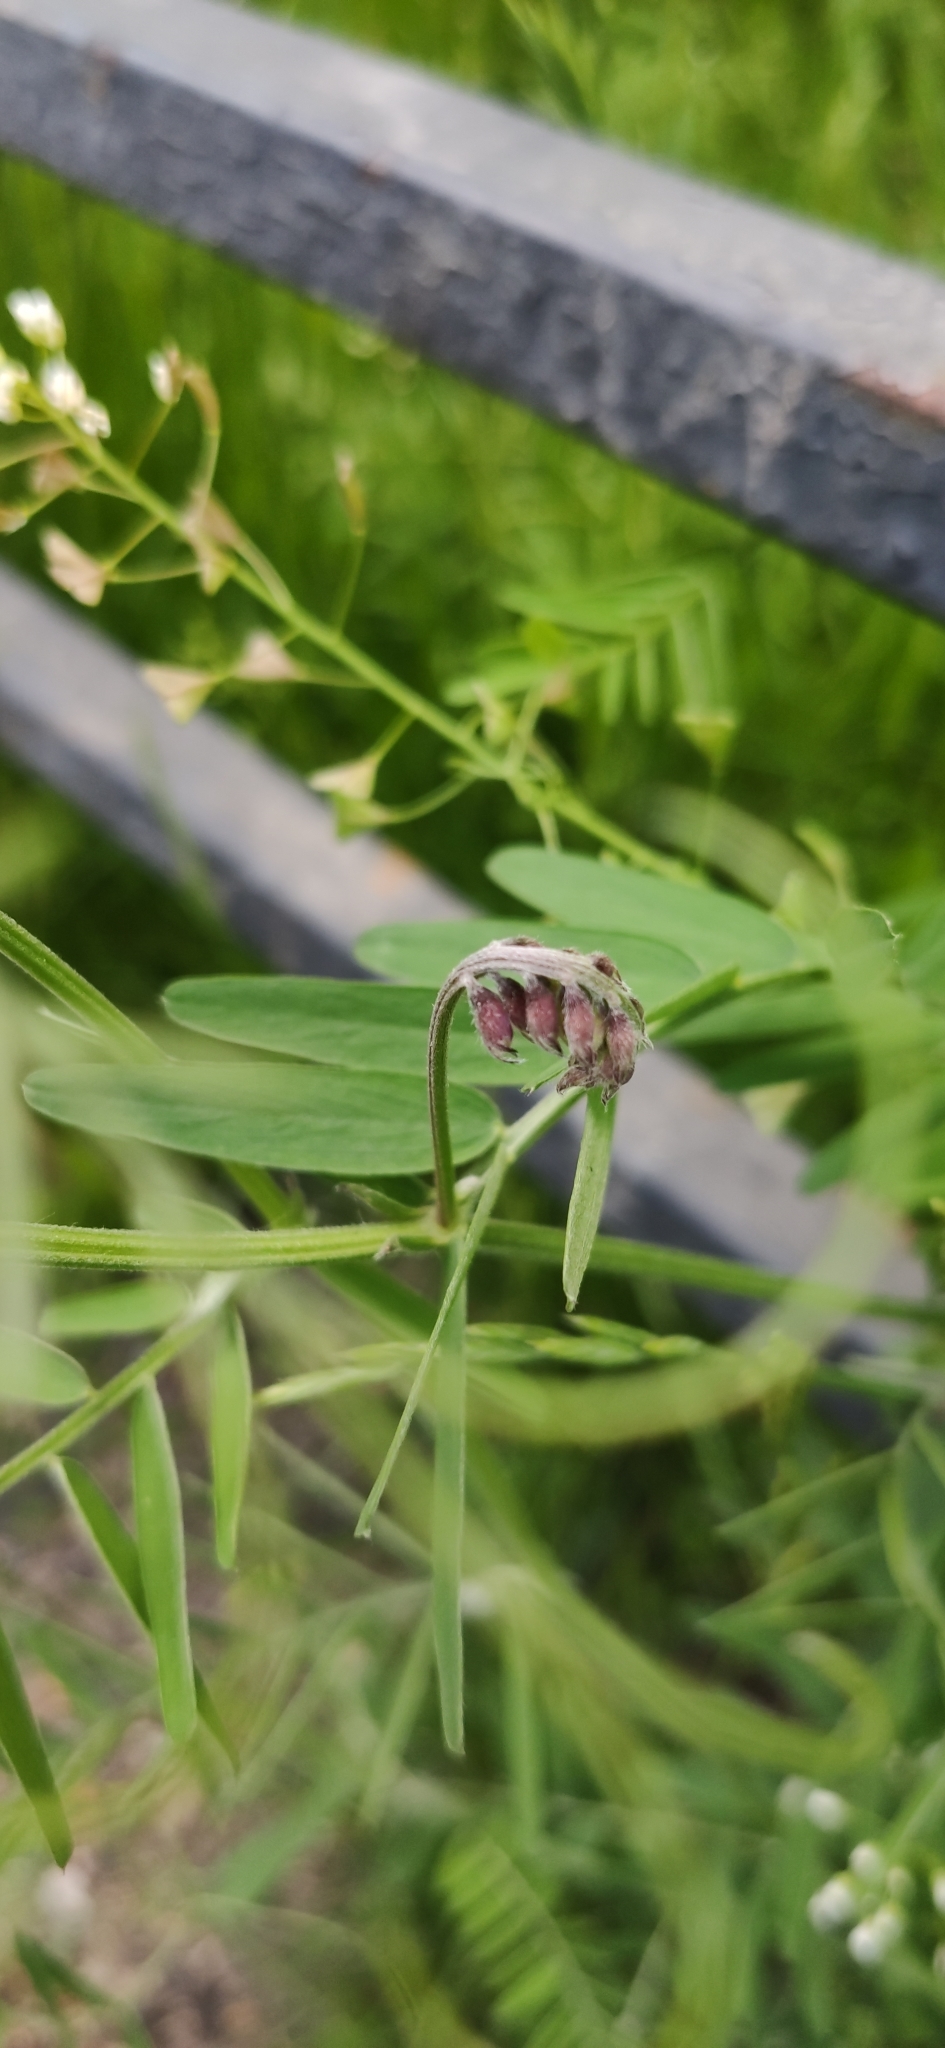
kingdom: Plantae
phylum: Tracheophyta
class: Magnoliopsida
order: Fabales
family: Fabaceae
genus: Vicia
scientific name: Vicia cracca
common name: Bird vetch
